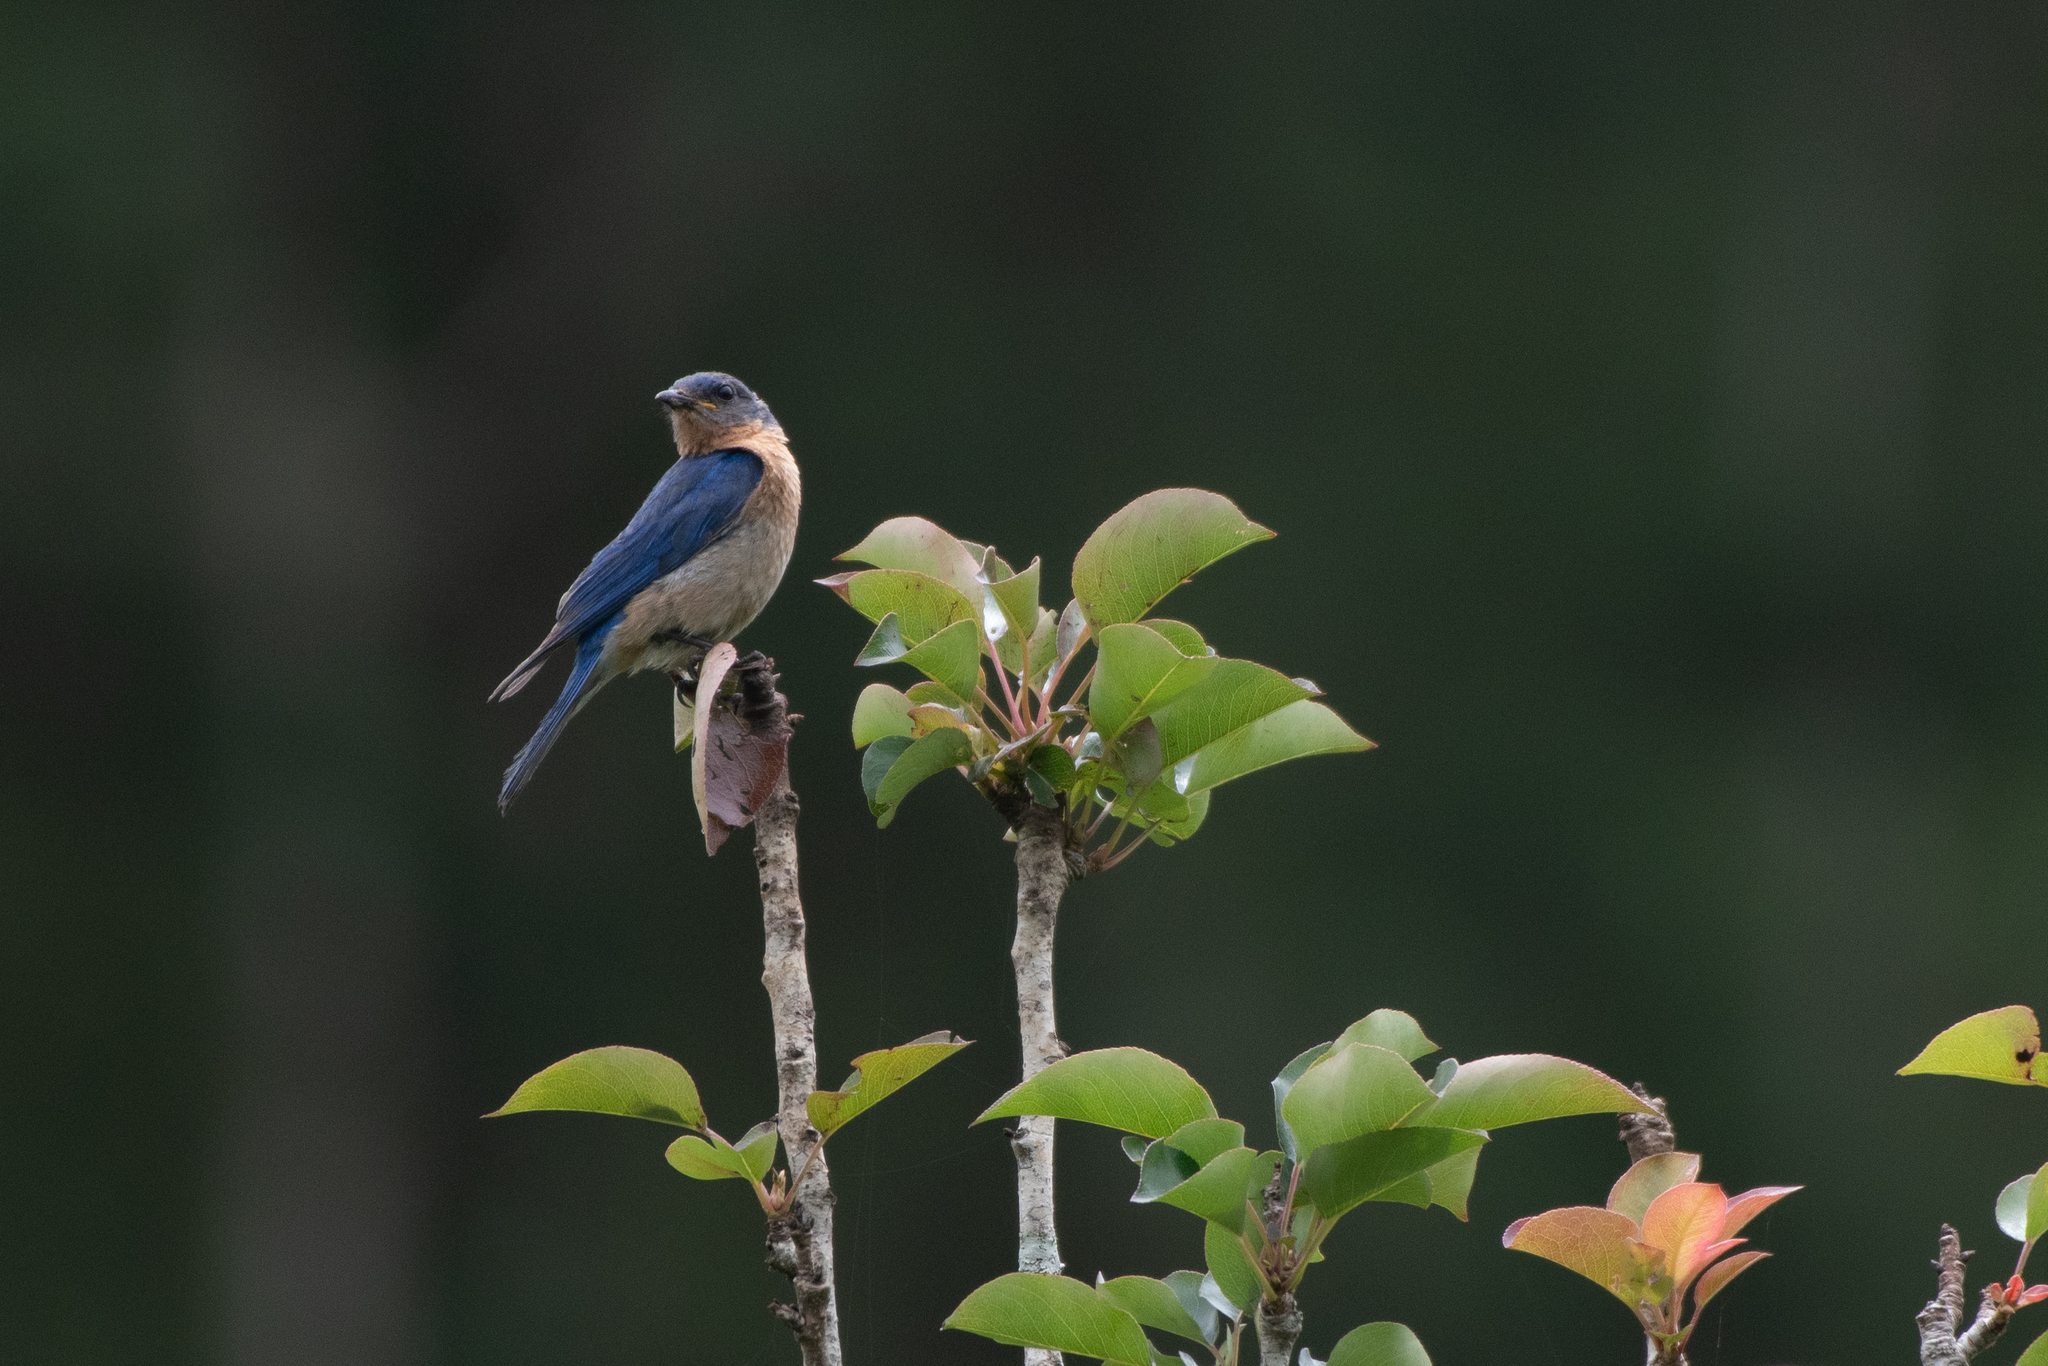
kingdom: Animalia
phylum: Chordata
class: Aves
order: Passeriformes
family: Turdidae
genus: Sialia
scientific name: Sialia sialis
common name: Eastern bluebird
